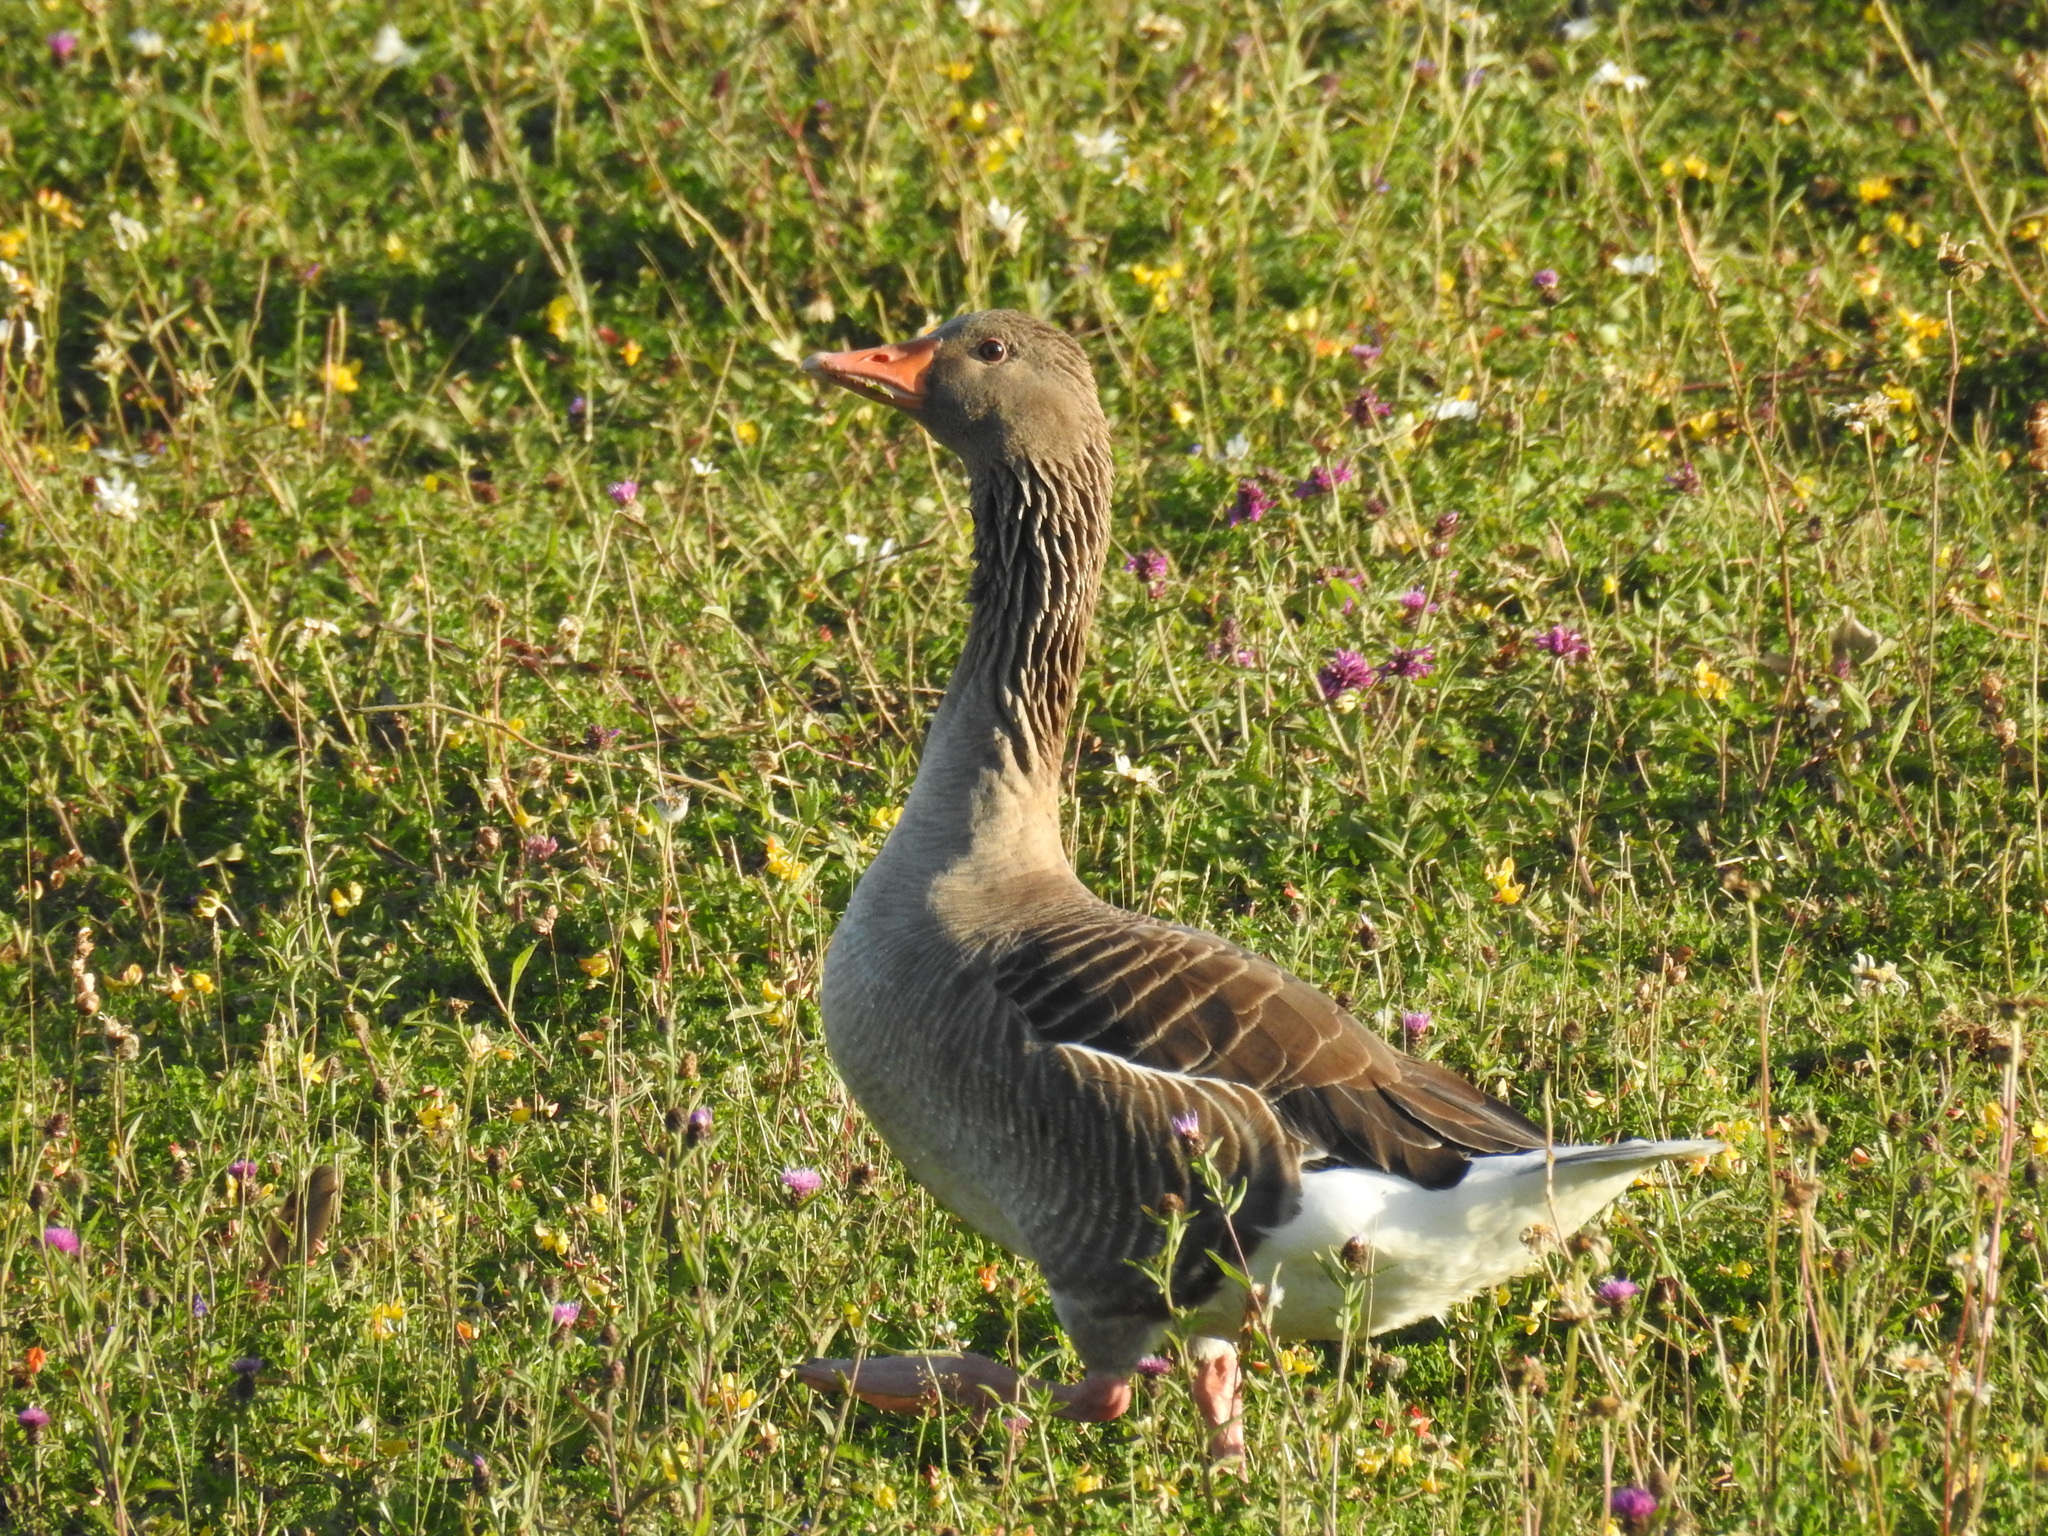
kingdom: Animalia
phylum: Chordata
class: Aves
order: Anseriformes
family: Anatidae
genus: Anser
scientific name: Anser anser
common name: Greylag goose
